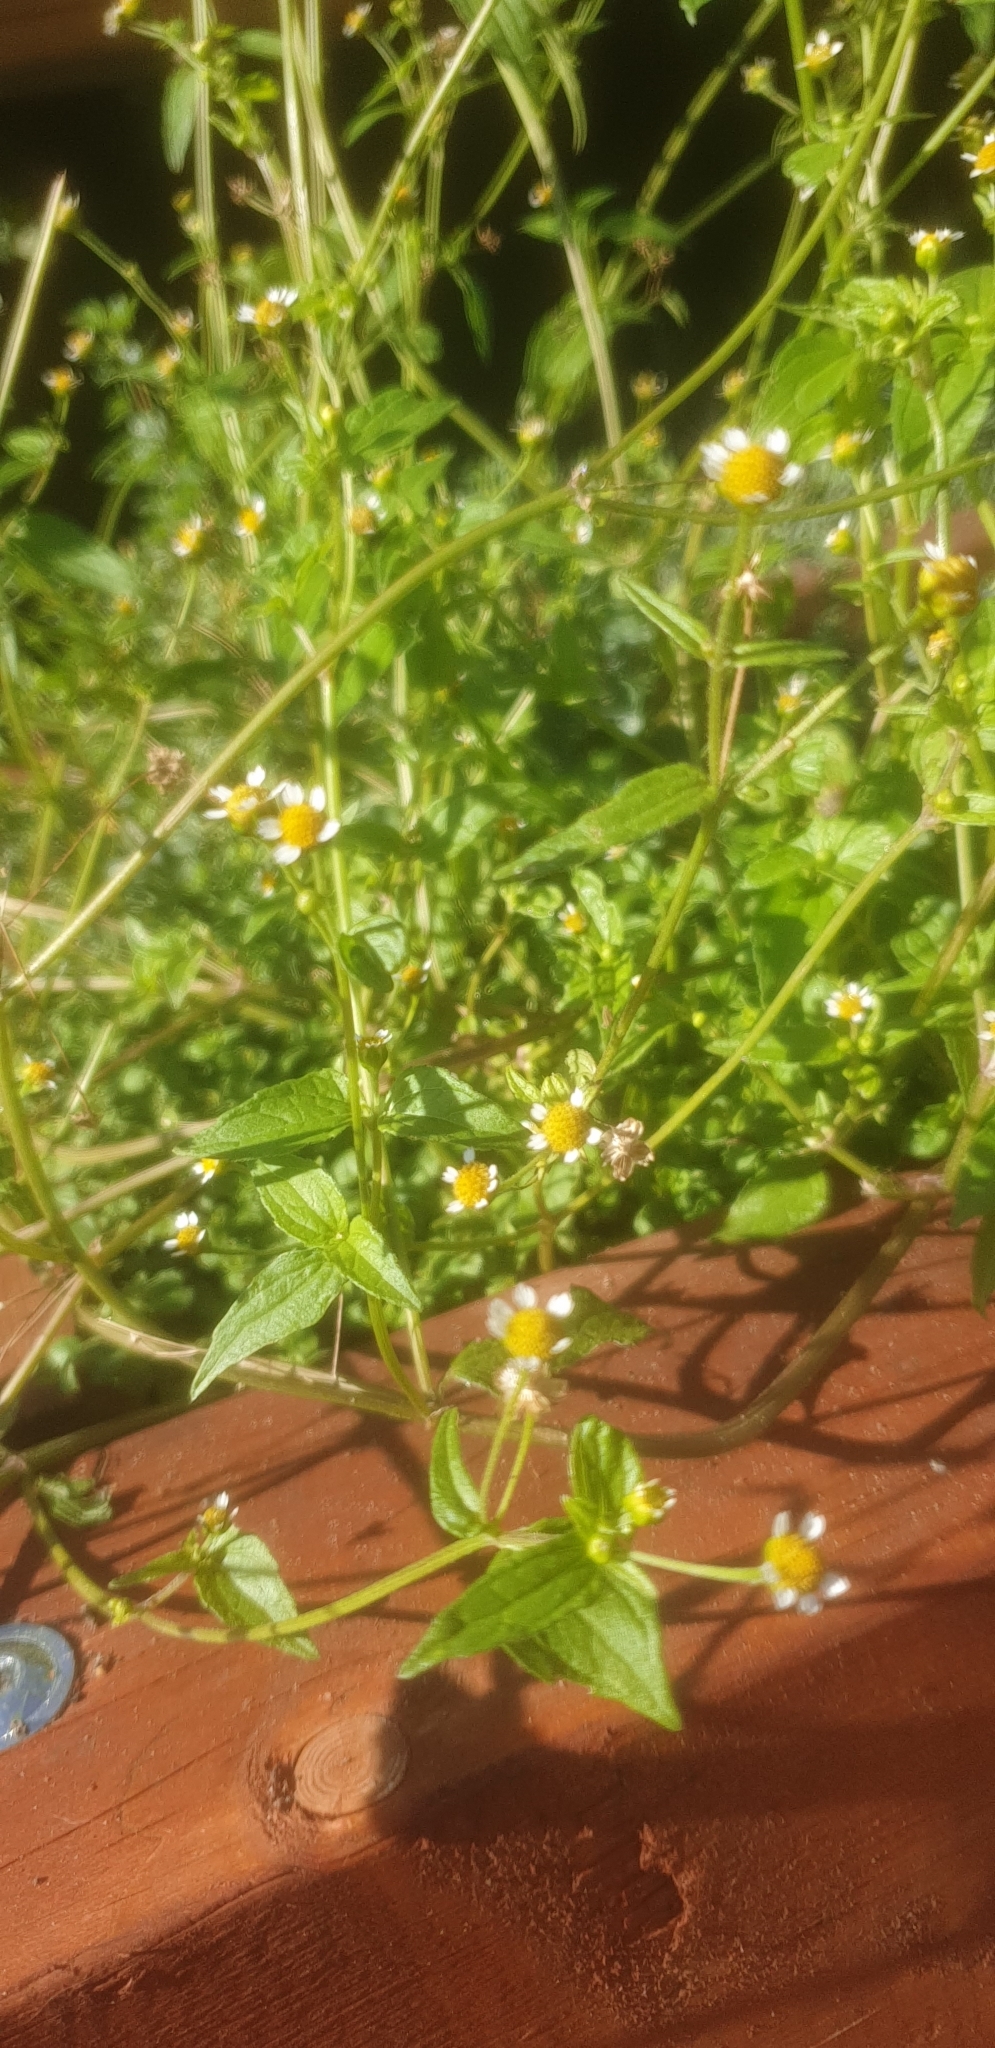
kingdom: Plantae
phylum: Tracheophyta
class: Magnoliopsida
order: Asterales
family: Asteraceae
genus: Galinsoga
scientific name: Galinsoga parviflora
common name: Gallant soldier
